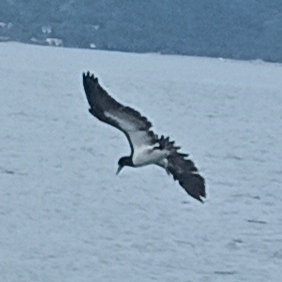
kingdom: Animalia
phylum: Chordata
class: Aves
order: Suliformes
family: Sulidae
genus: Sula
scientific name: Sula leucogaster
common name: Brown booby
